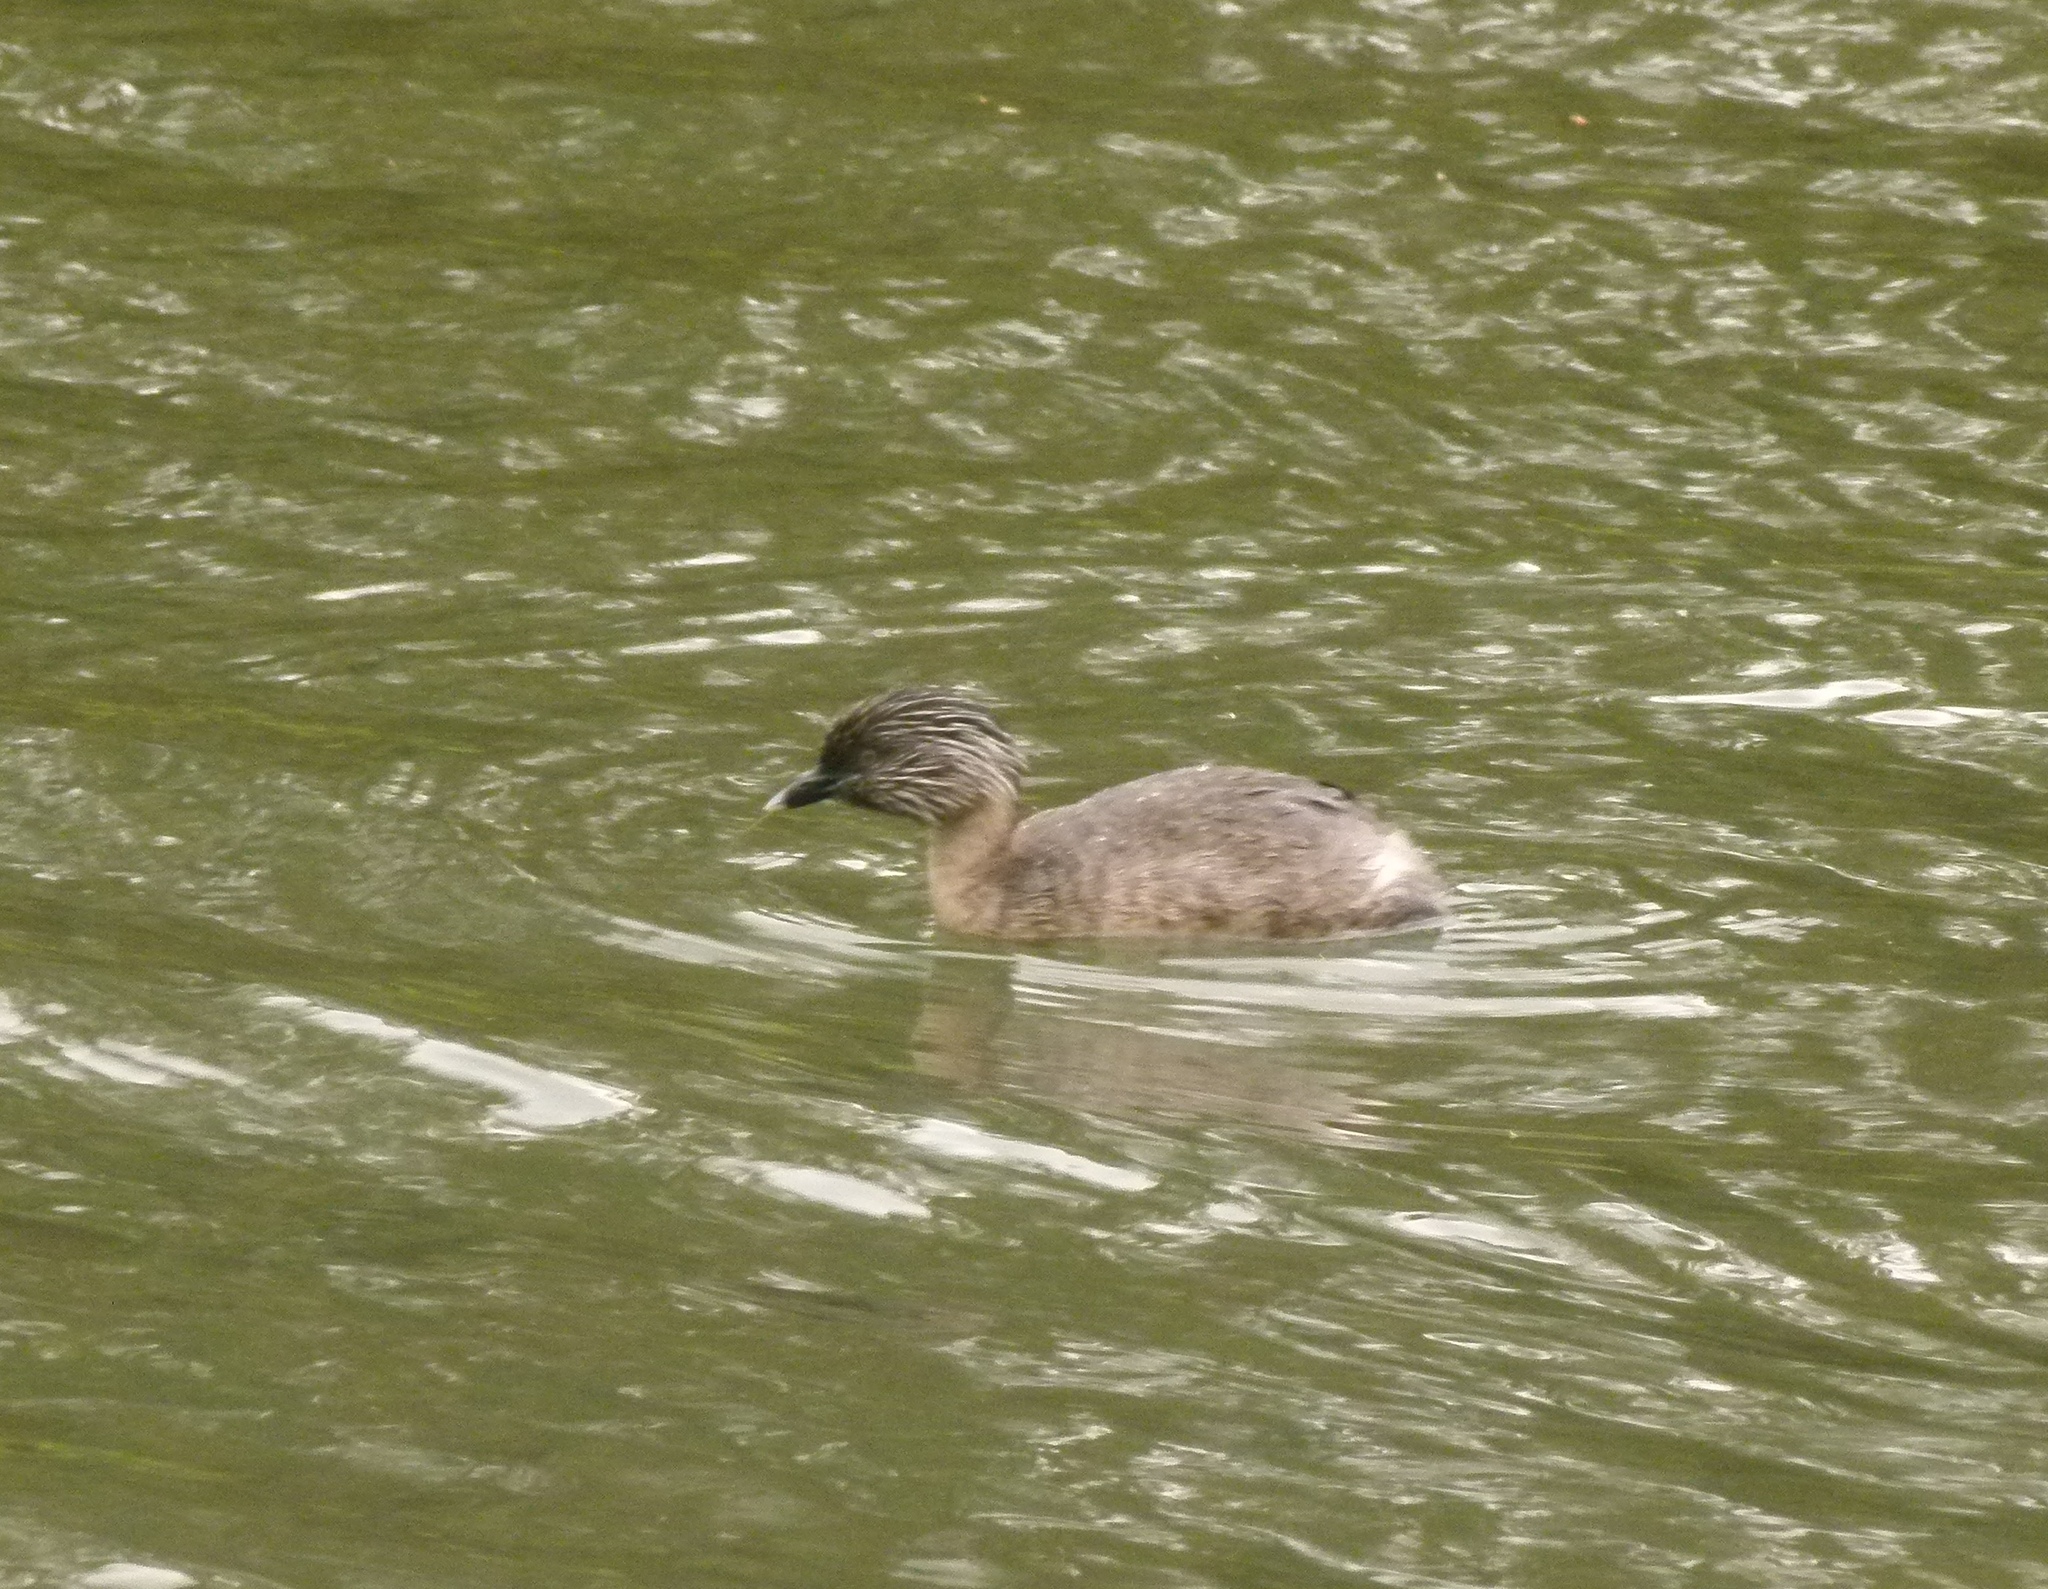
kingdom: Animalia
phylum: Chordata
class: Aves
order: Podicipediformes
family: Podicipedidae
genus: Poliocephalus
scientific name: Poliocephalus poliocephalus
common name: Hoary-headed grebe
